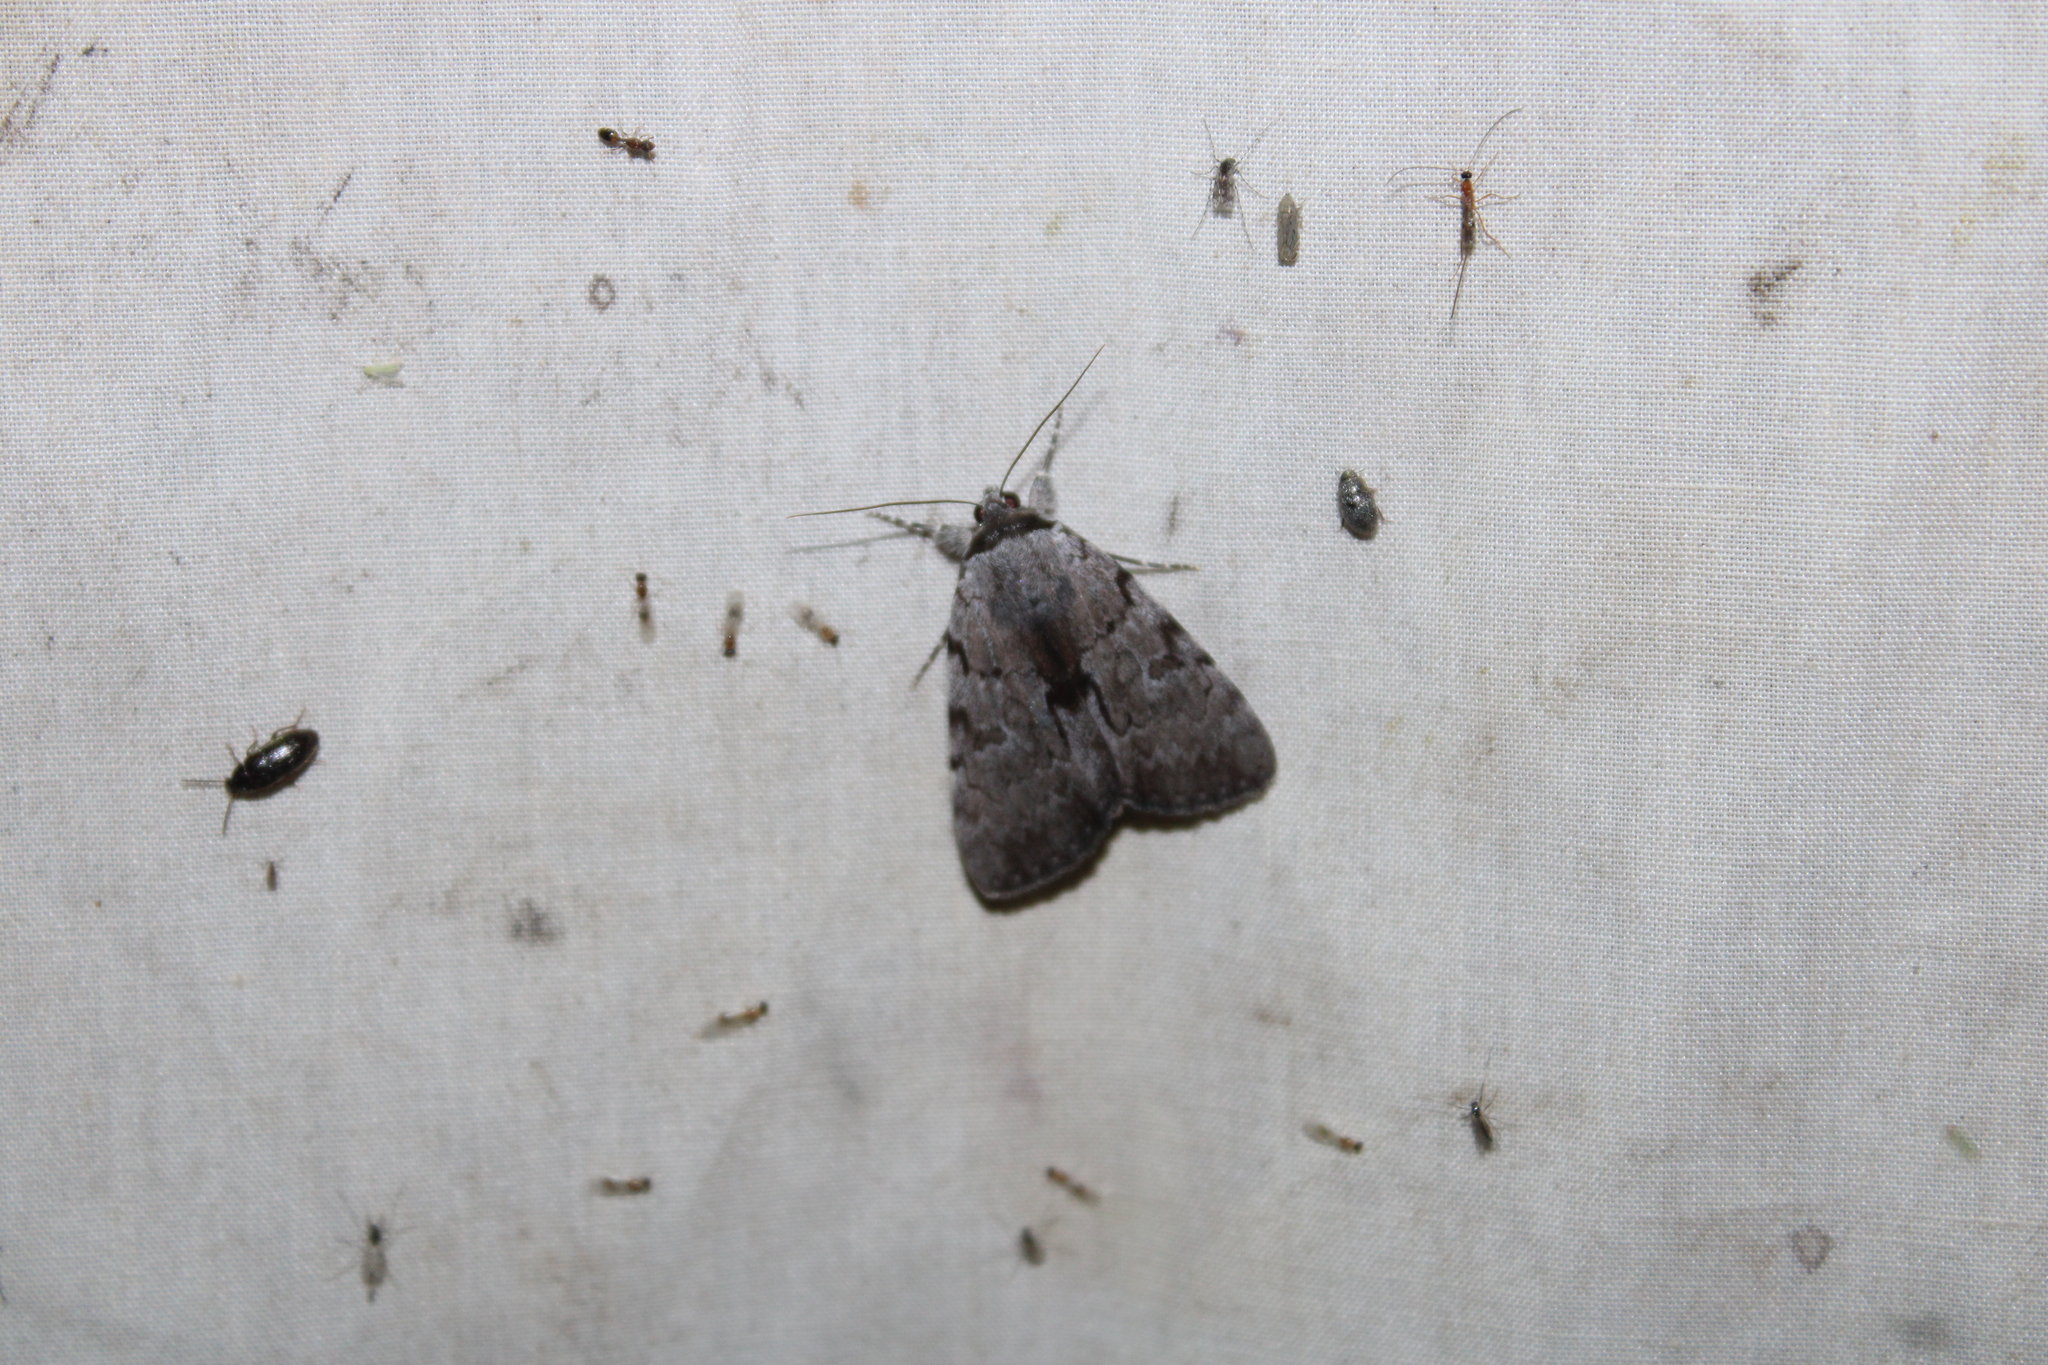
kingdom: Animalia
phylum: Arthropoda
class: Insecta
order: Lepidoptera
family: Erebidae
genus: Catocala
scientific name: Catocala sordida
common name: Sordid underwing
